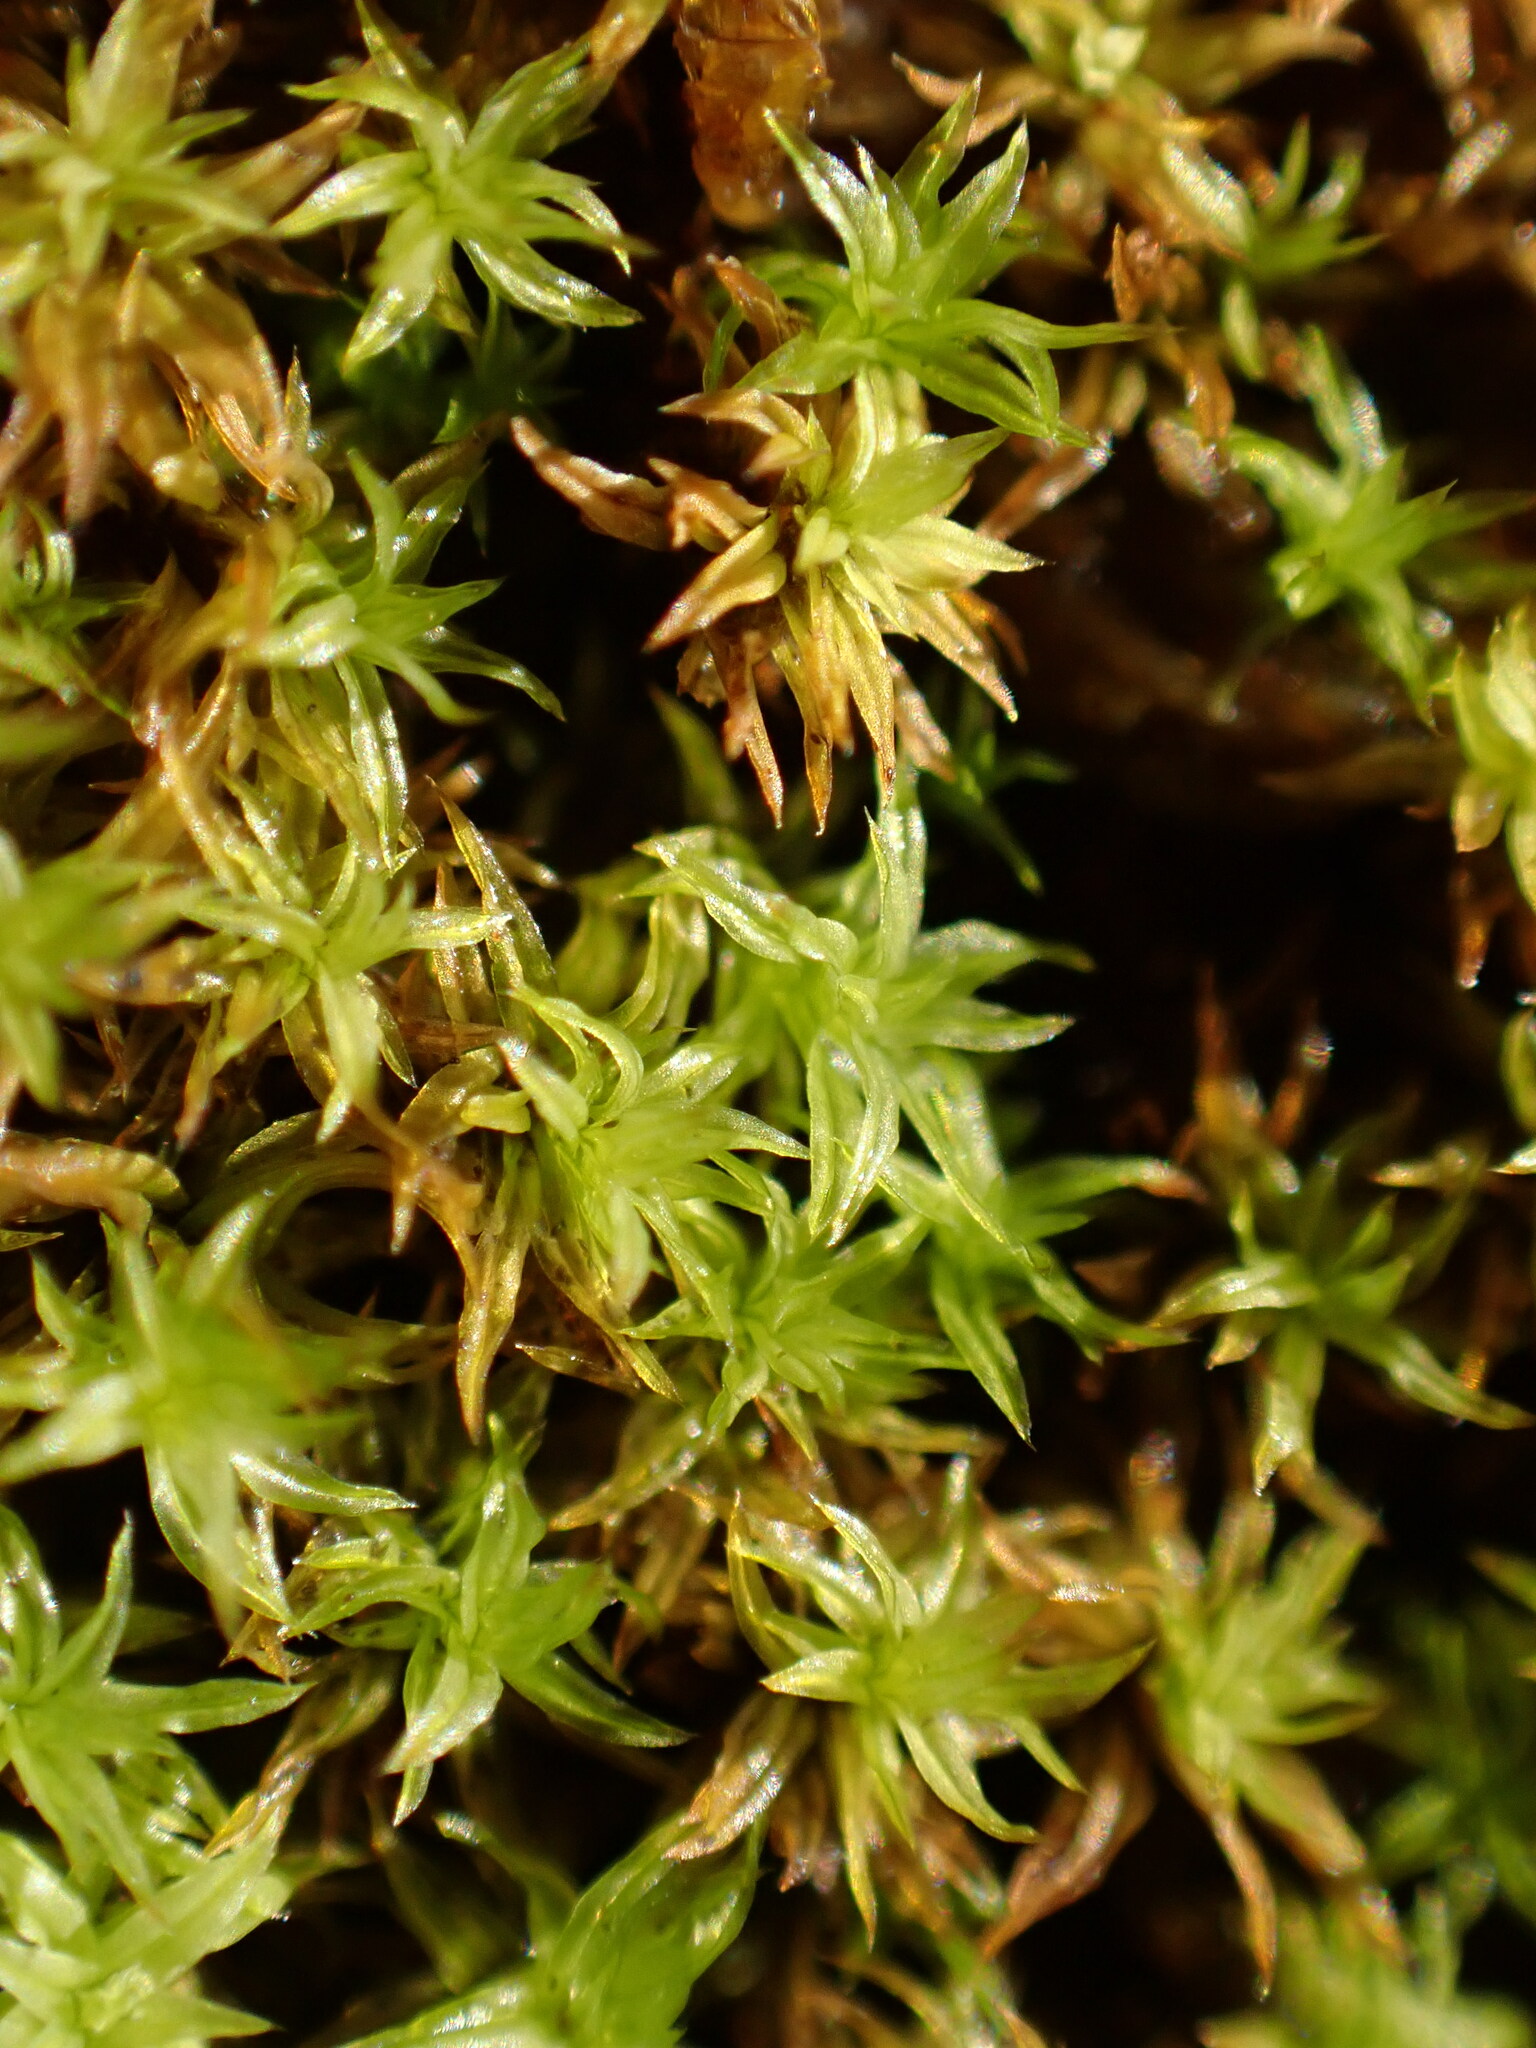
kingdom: Plantae
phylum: Bryophyta
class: Bryopsida
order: Orthotrichales
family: Orthotrichaceae
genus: Zygodon
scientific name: Zygodon rupestris
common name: Park yoke moss
